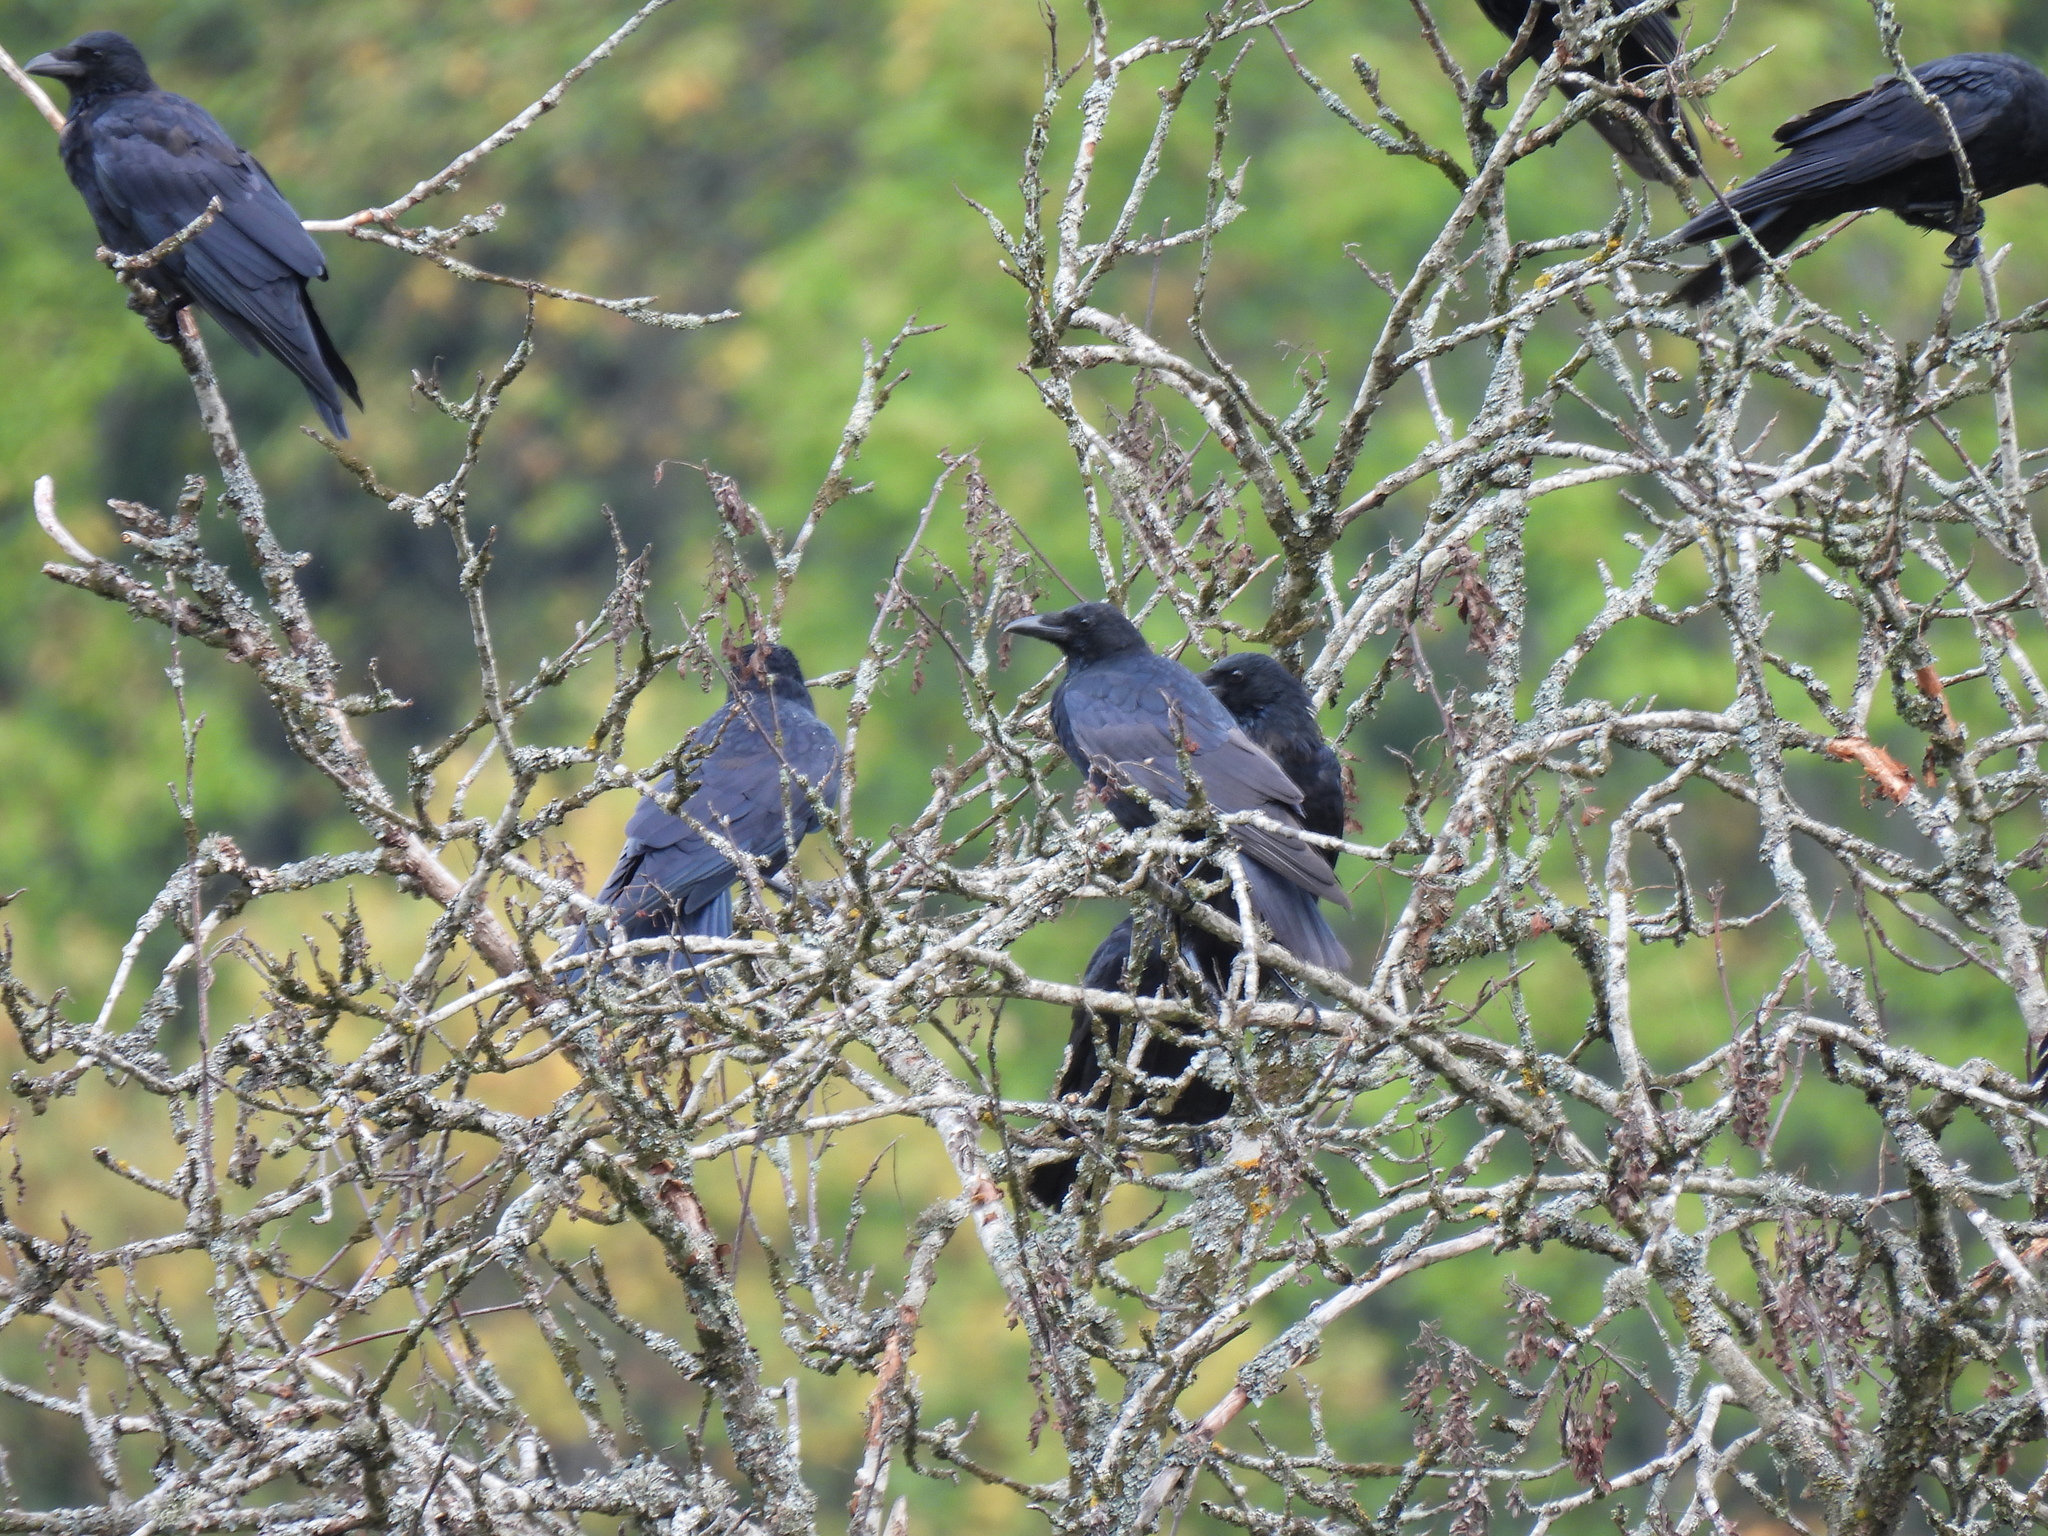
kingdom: Animalia
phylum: Chordata
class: Aves
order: Passeriformes
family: Corvidae
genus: Corvus
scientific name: Corvus corone
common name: Carrion crow
